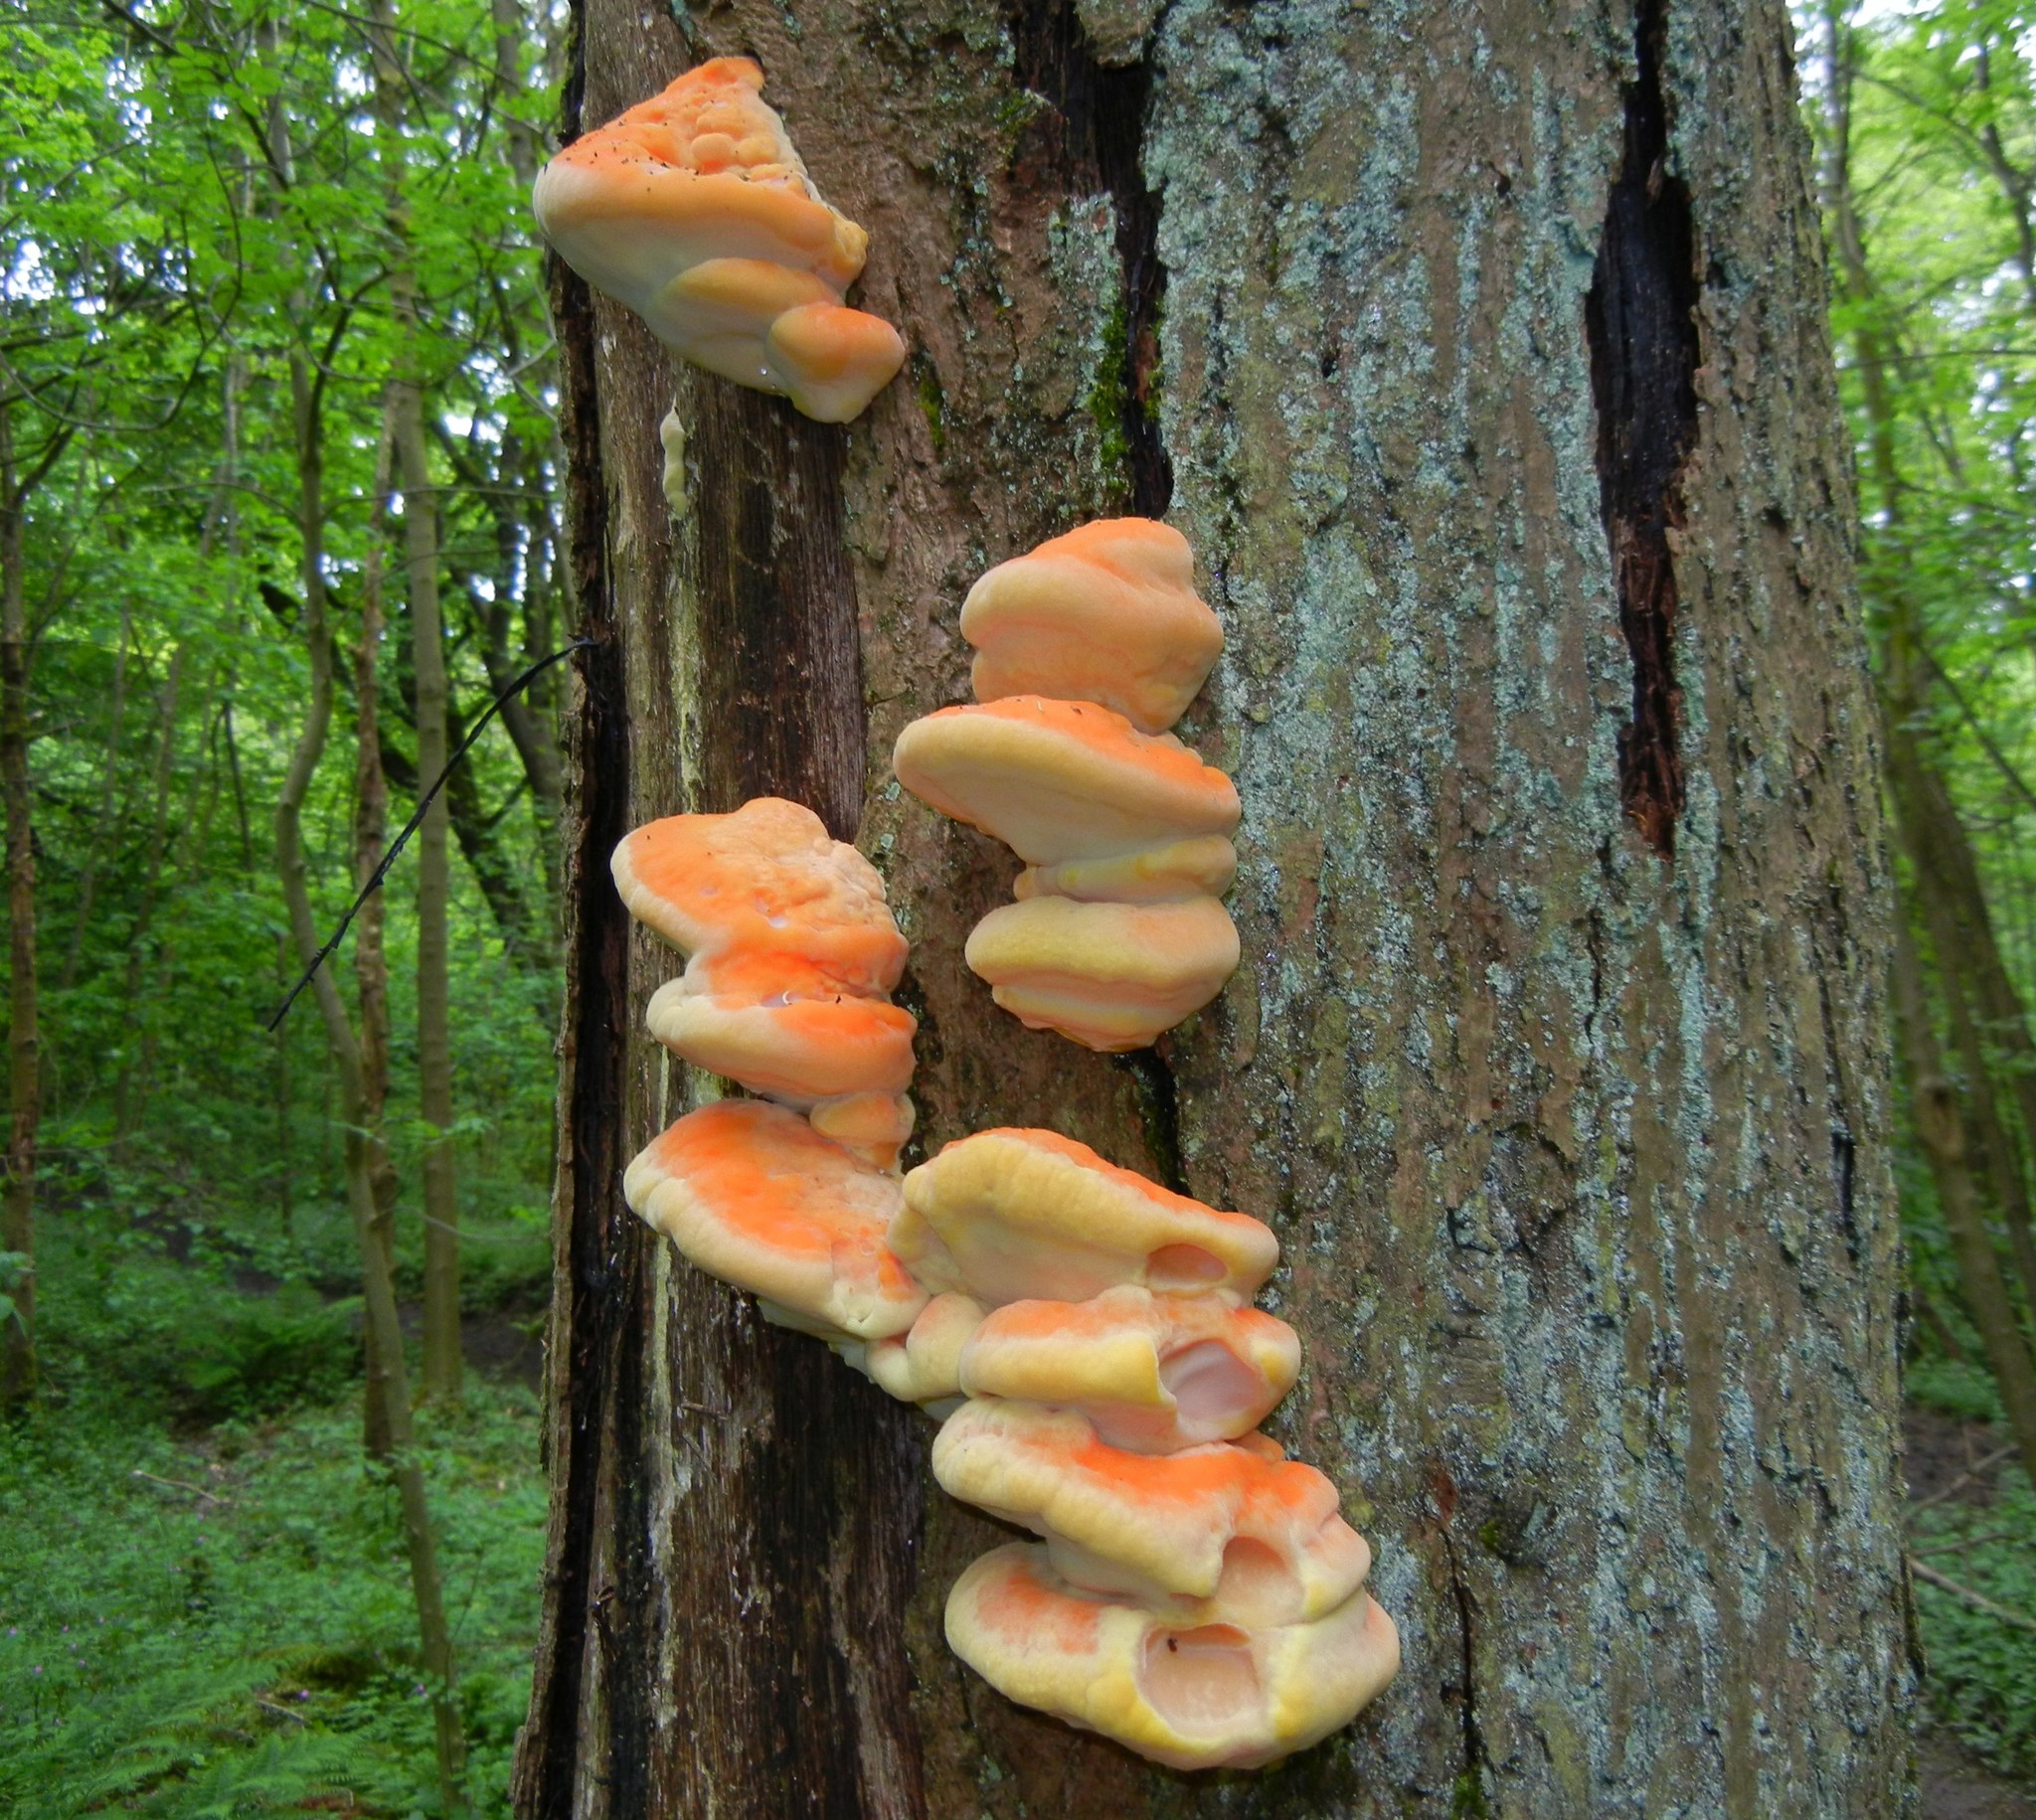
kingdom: Fungi
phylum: Basidiomycota
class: Agaricomycetes
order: Polyporales
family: Laetiporaceae
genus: Laetiporus
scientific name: Laetiporus sulphureus
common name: Chicken of the woods
